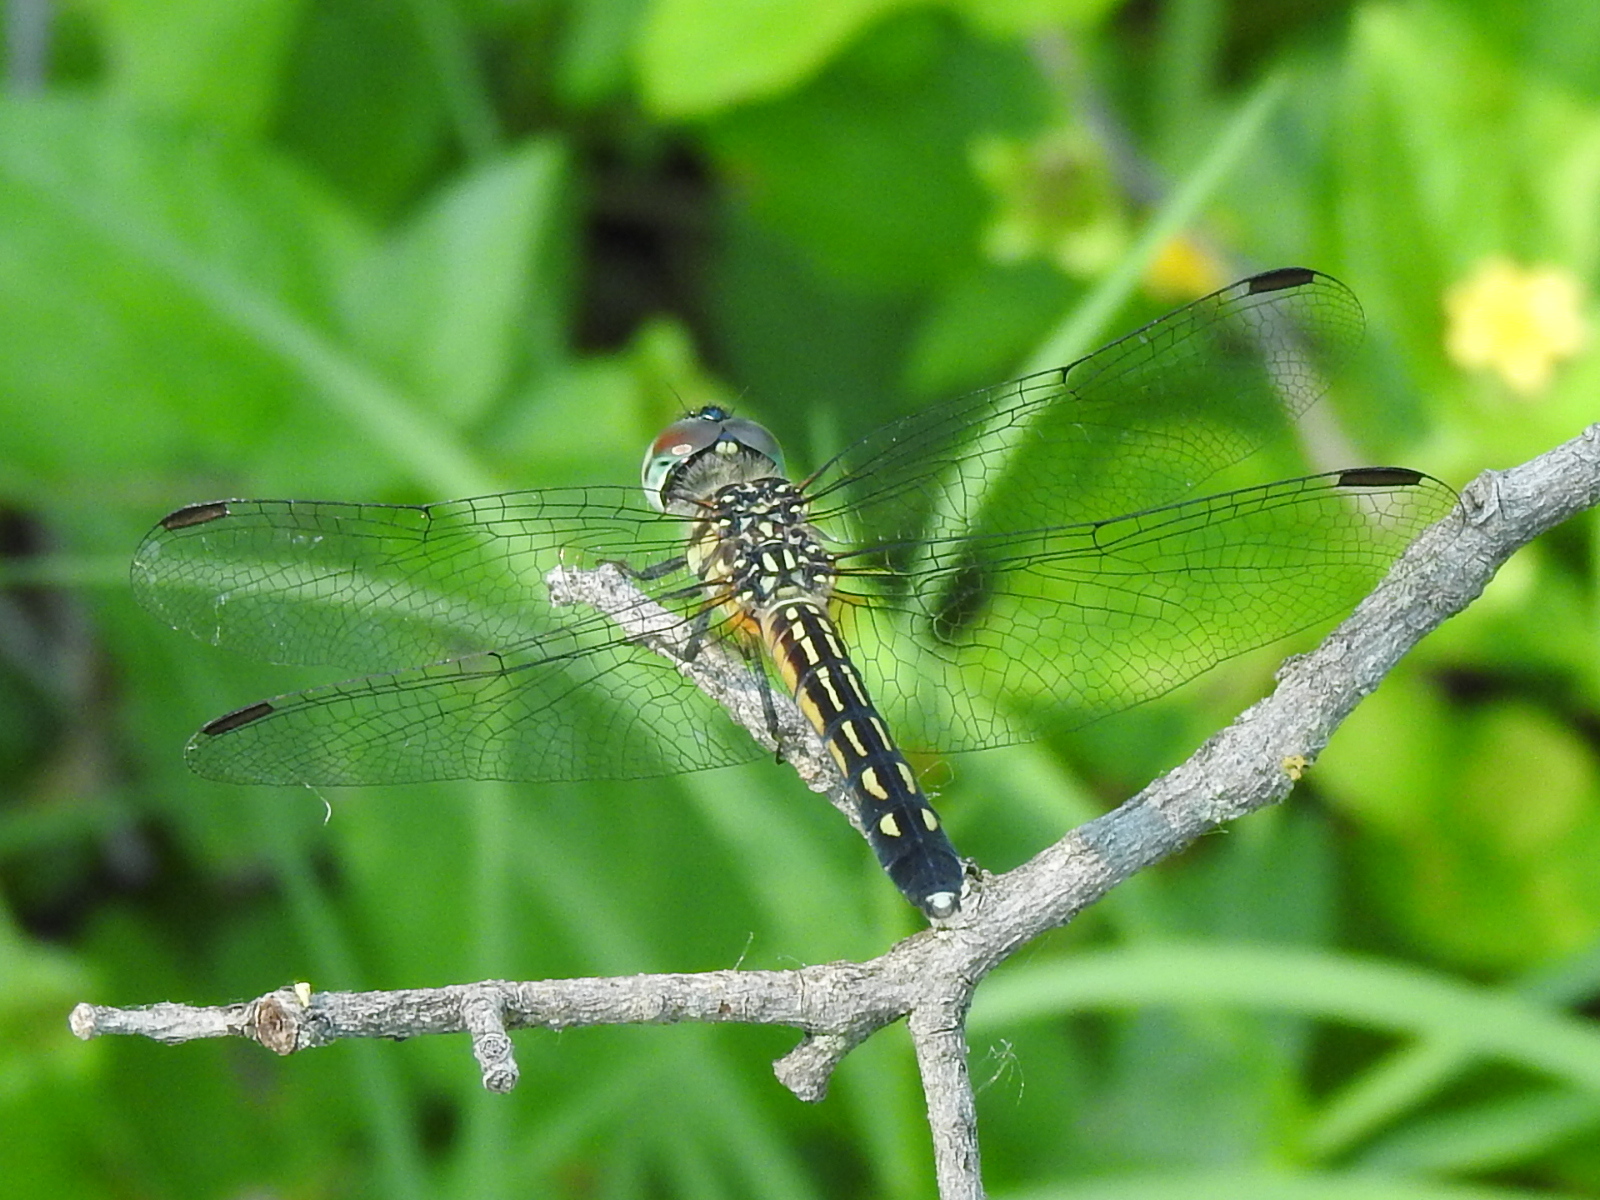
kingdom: Animalia
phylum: Arthropoda
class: Insecta
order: Odonata
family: Libellulidae
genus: Pachydiplax
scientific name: Pachydiplax longipennis
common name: Blue dasher
